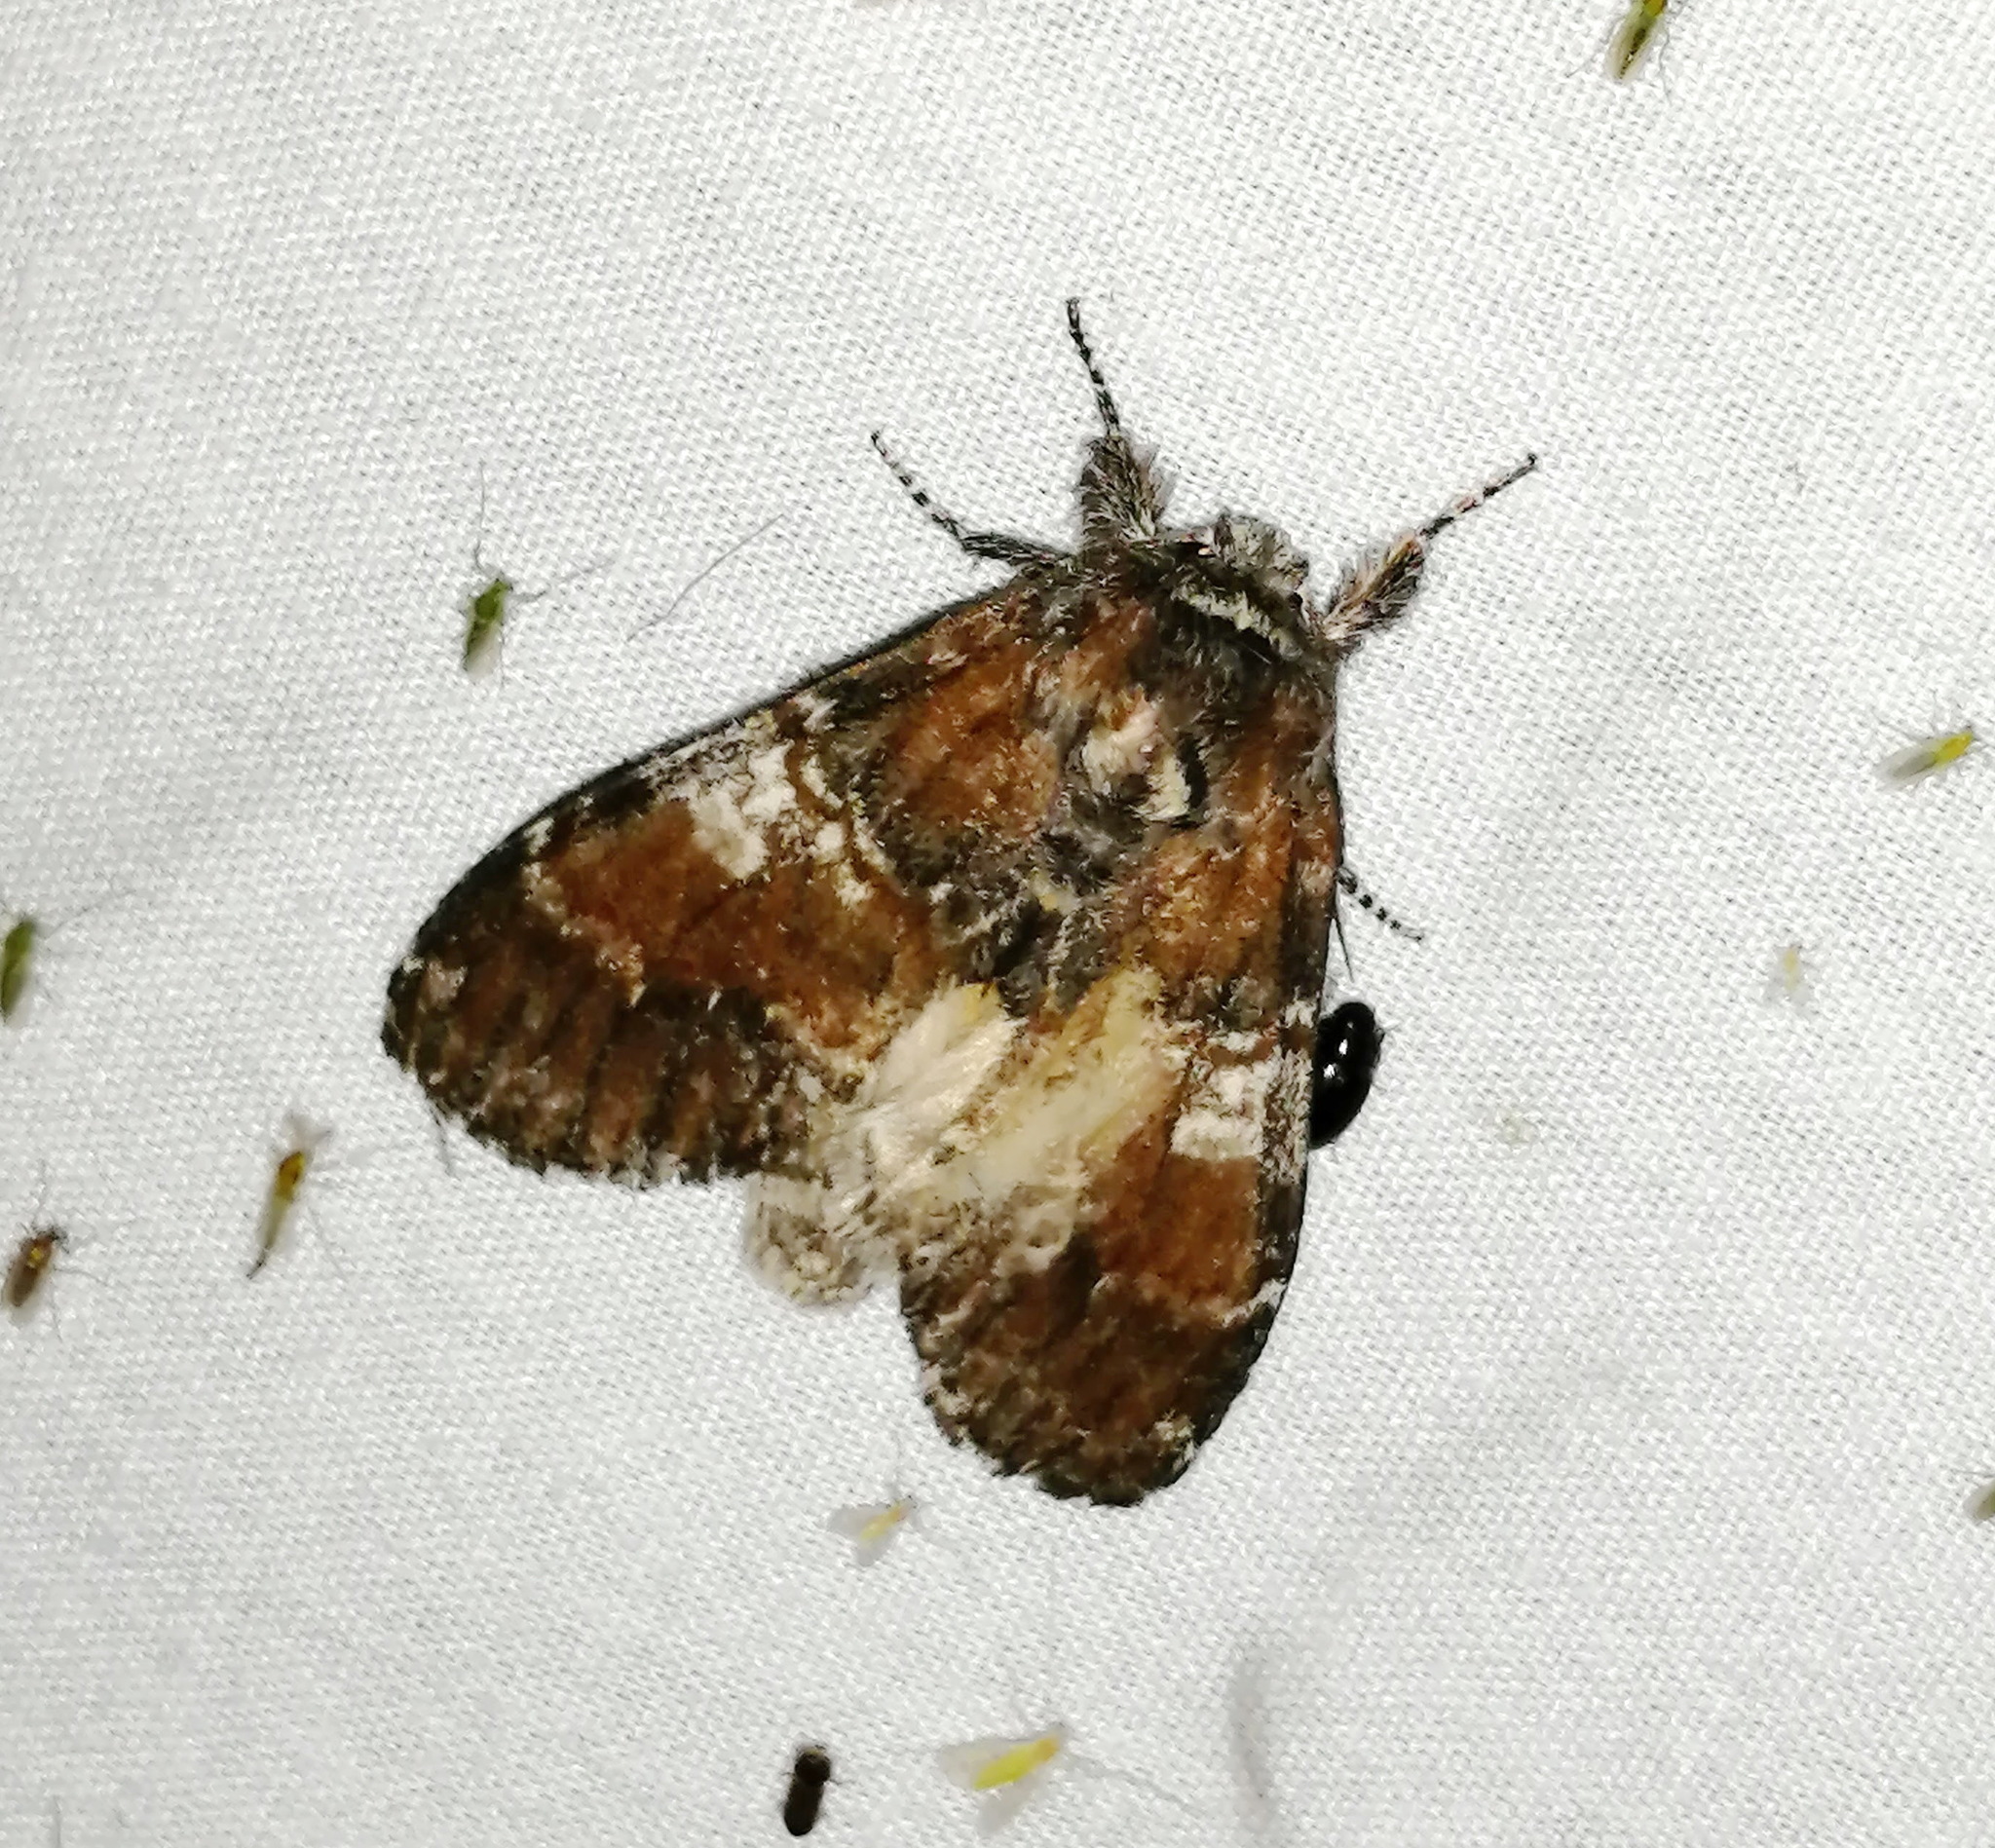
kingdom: Animalia
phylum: Arthropoda
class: Insecta
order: Lepidoptera
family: Notodontidae
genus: Peridea
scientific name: Peridea ferruginea
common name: Chocolate prominent
